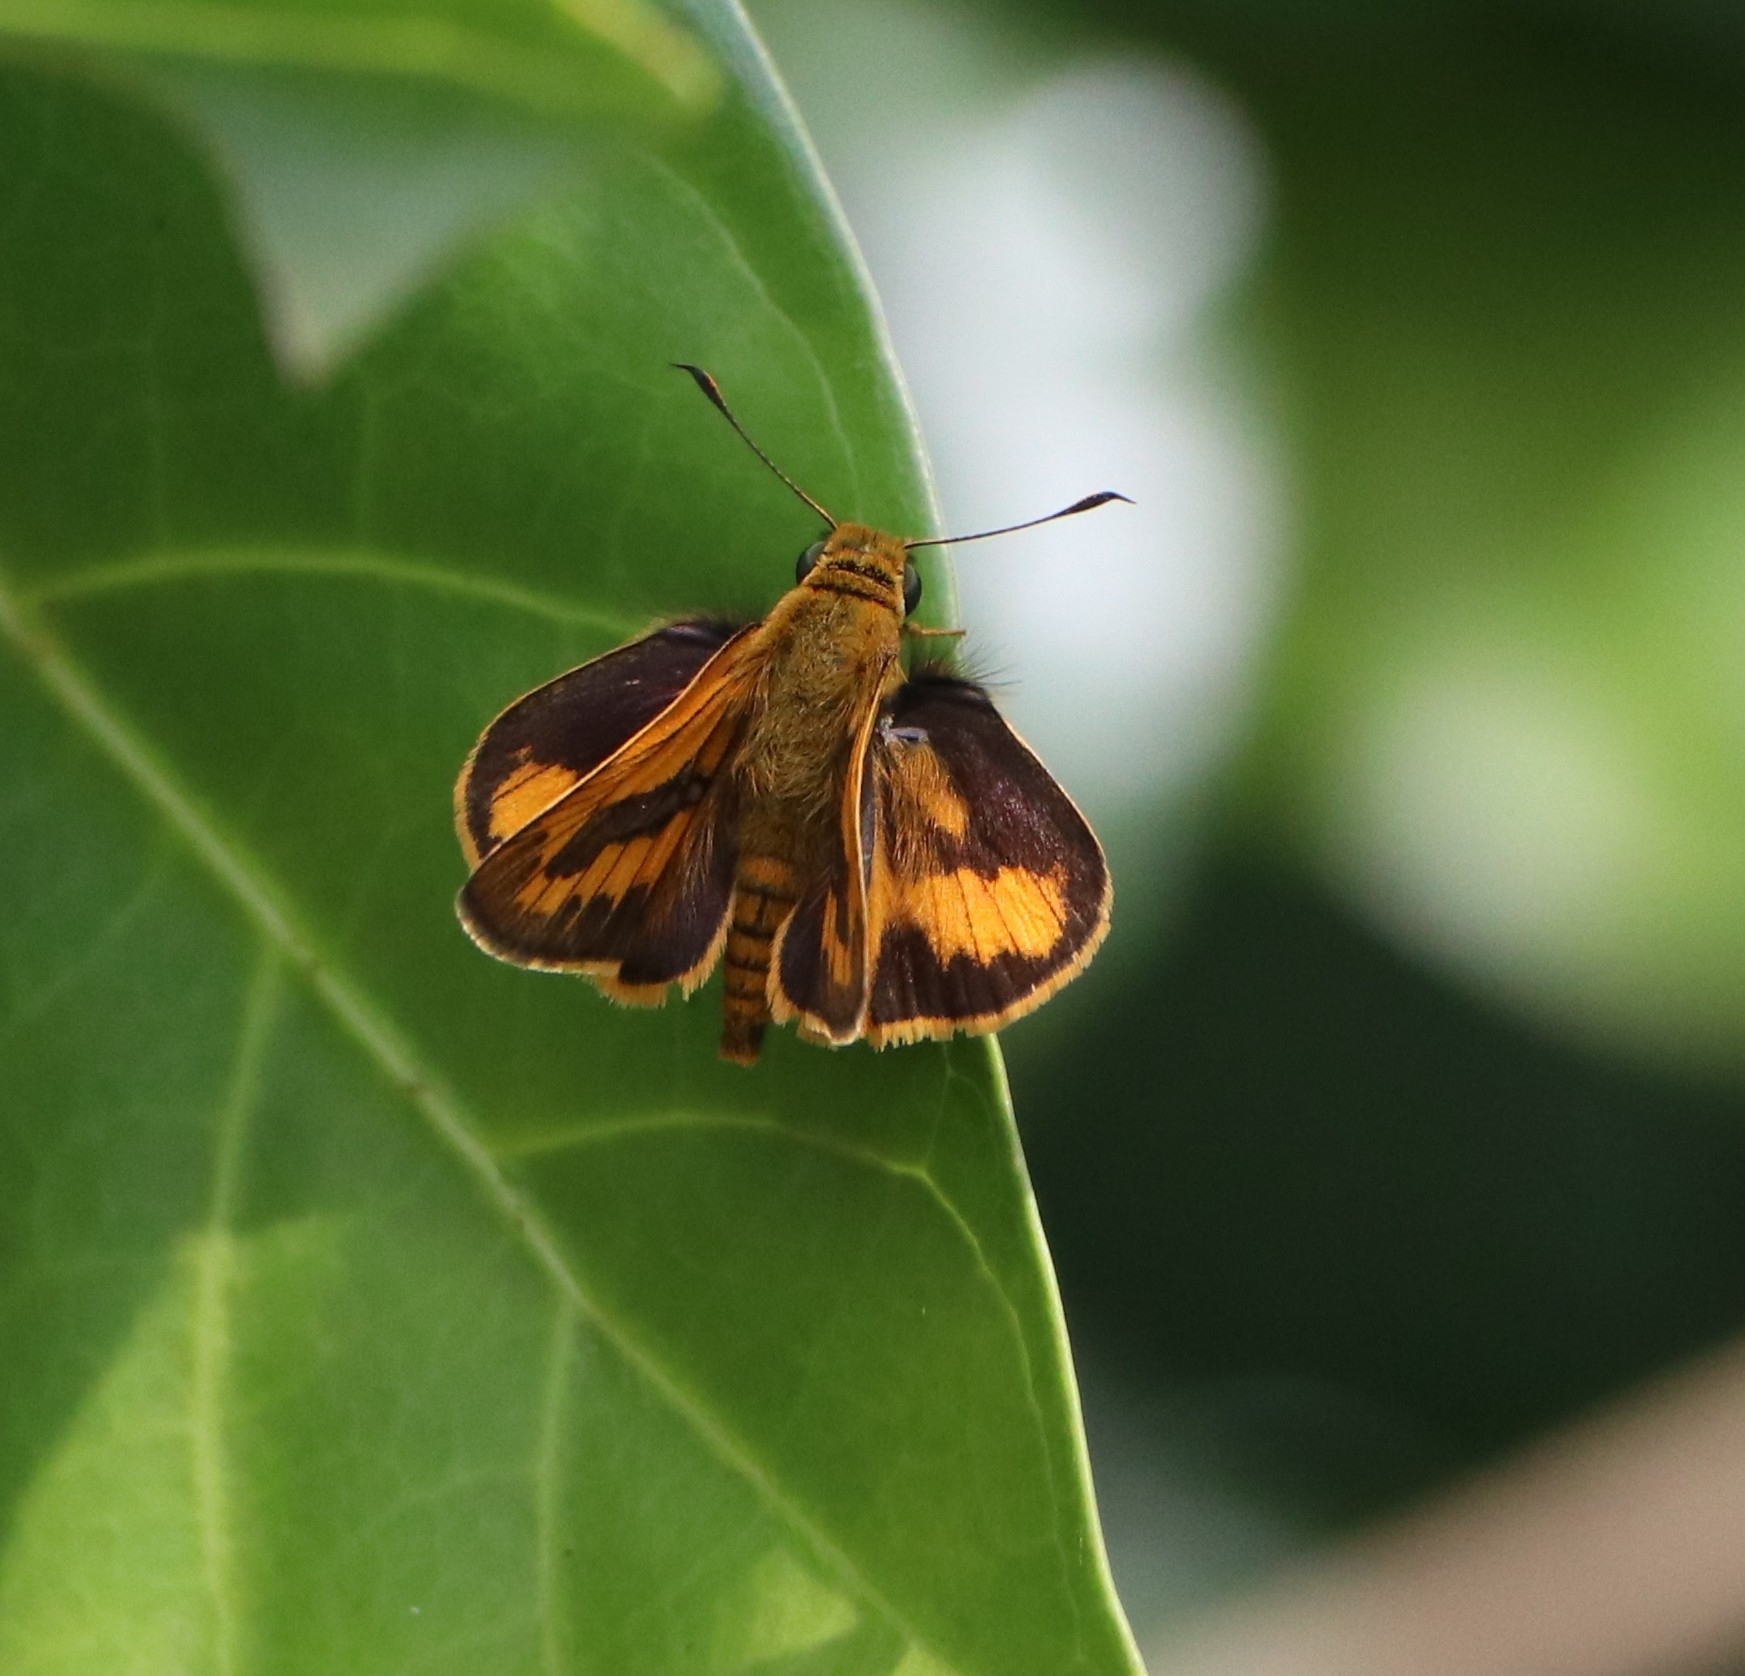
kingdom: Animalia
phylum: Arthropoda
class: Insecta
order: Lepidoptera
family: Hesperiidae
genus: Telicota
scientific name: Telicota bambusae
